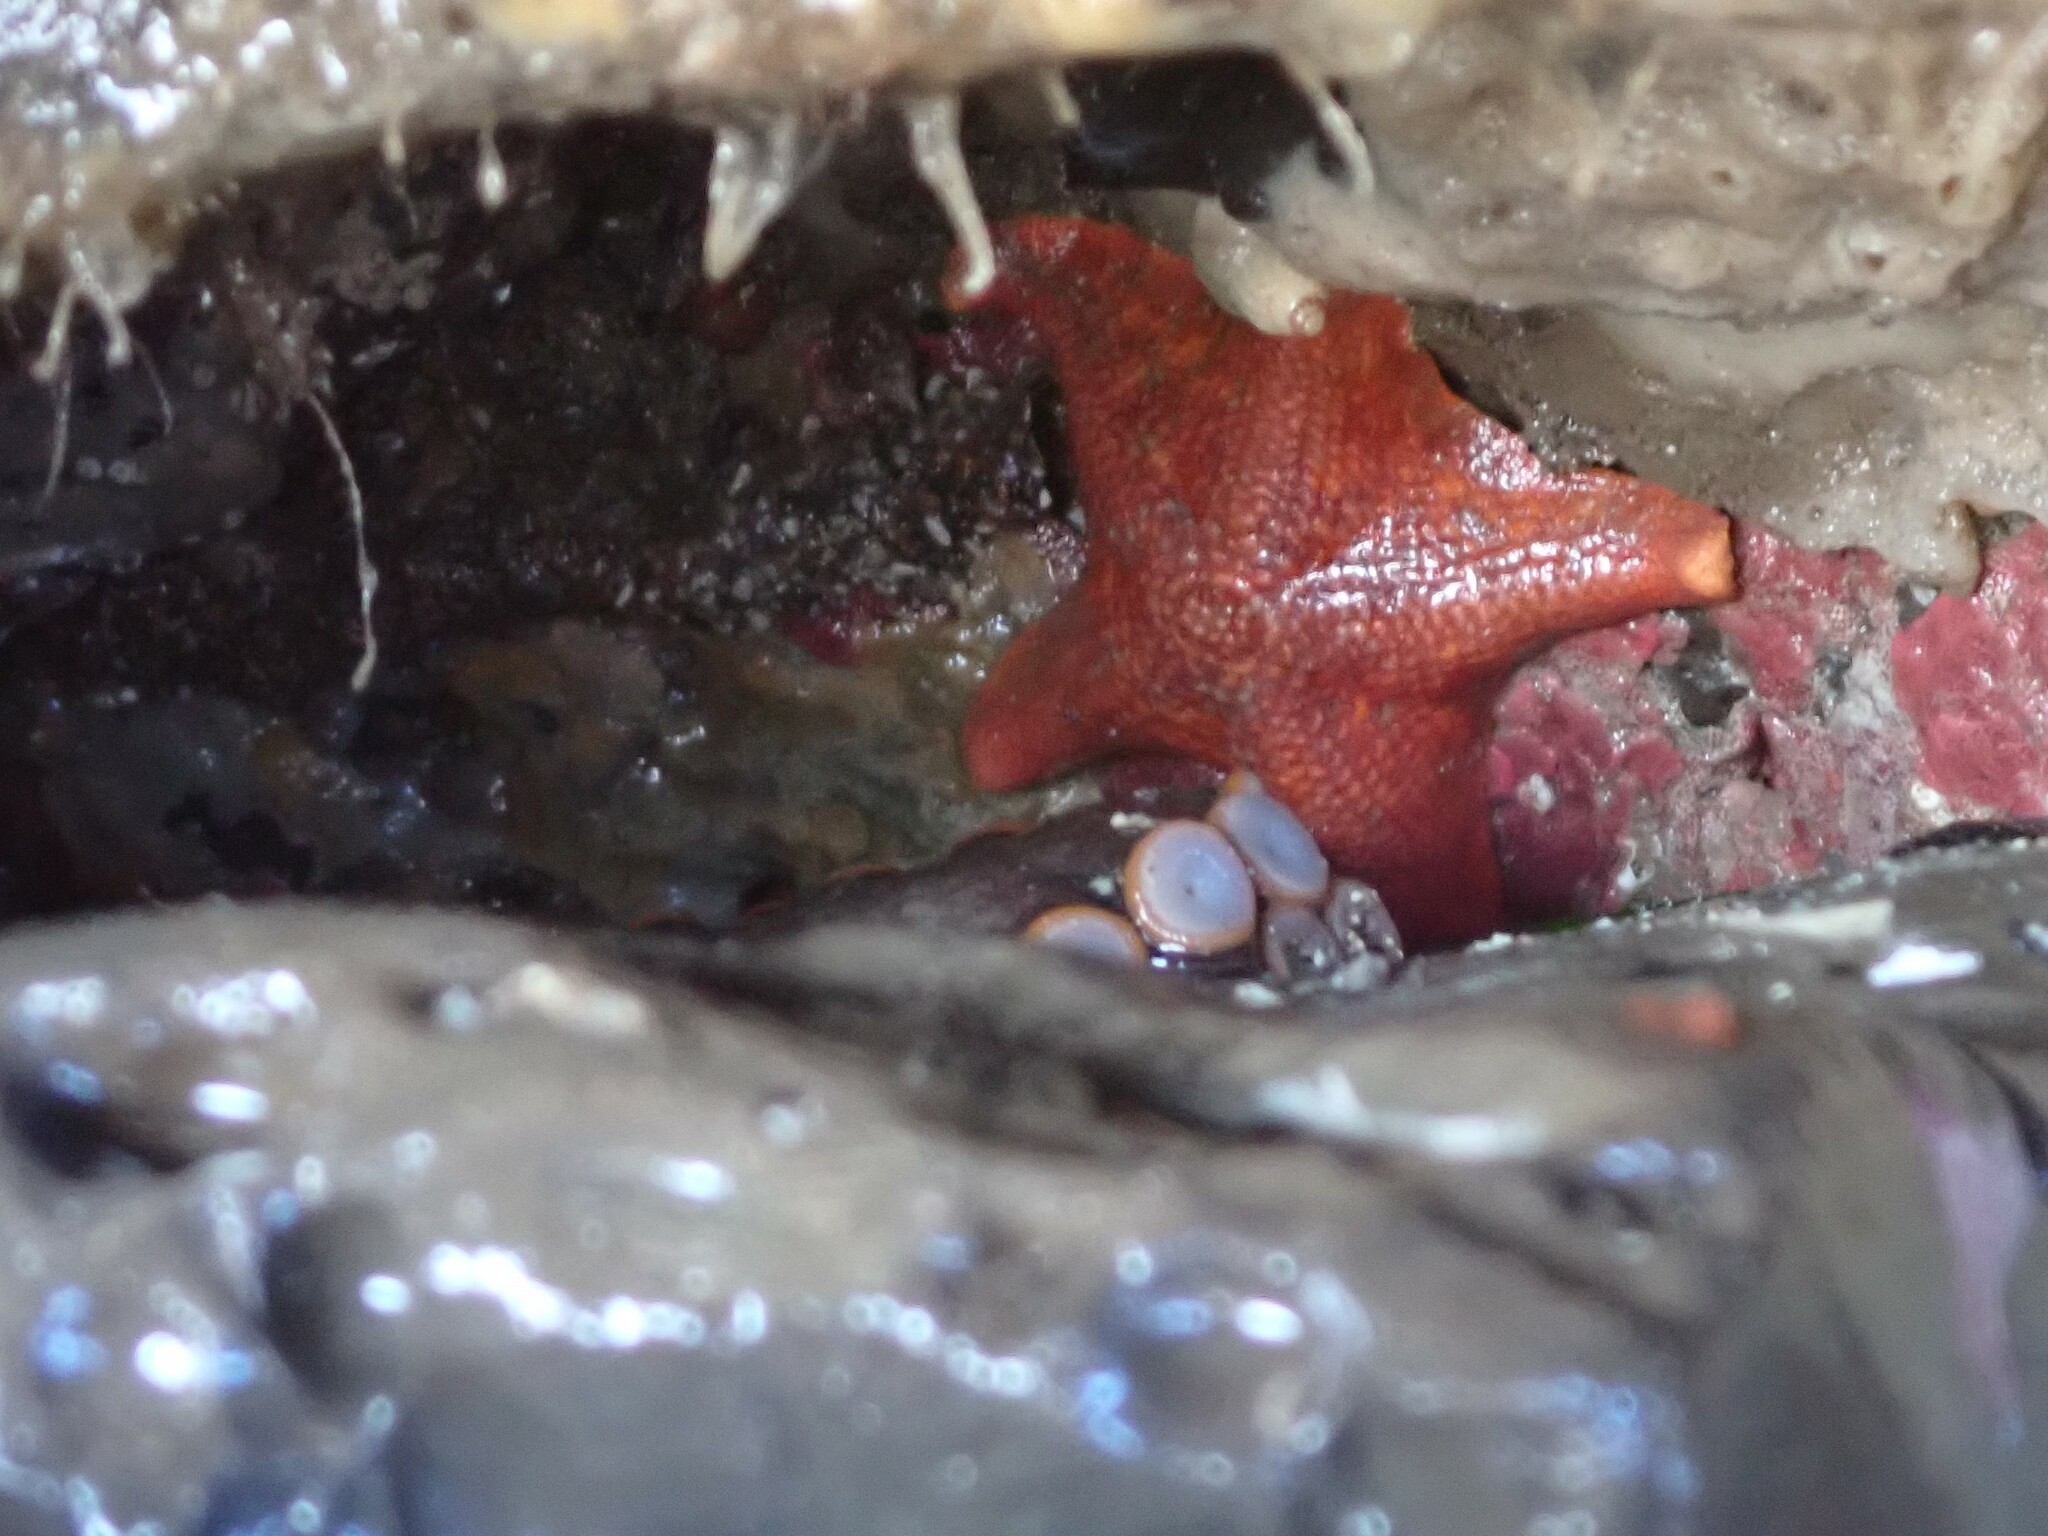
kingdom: Animalia
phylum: Mollusca
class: Cephalopoda
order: Octopoda
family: Enteroctopodidae
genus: Enteroctopus
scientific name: Enteroctopus dofleini
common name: Giant north pacific octopus
